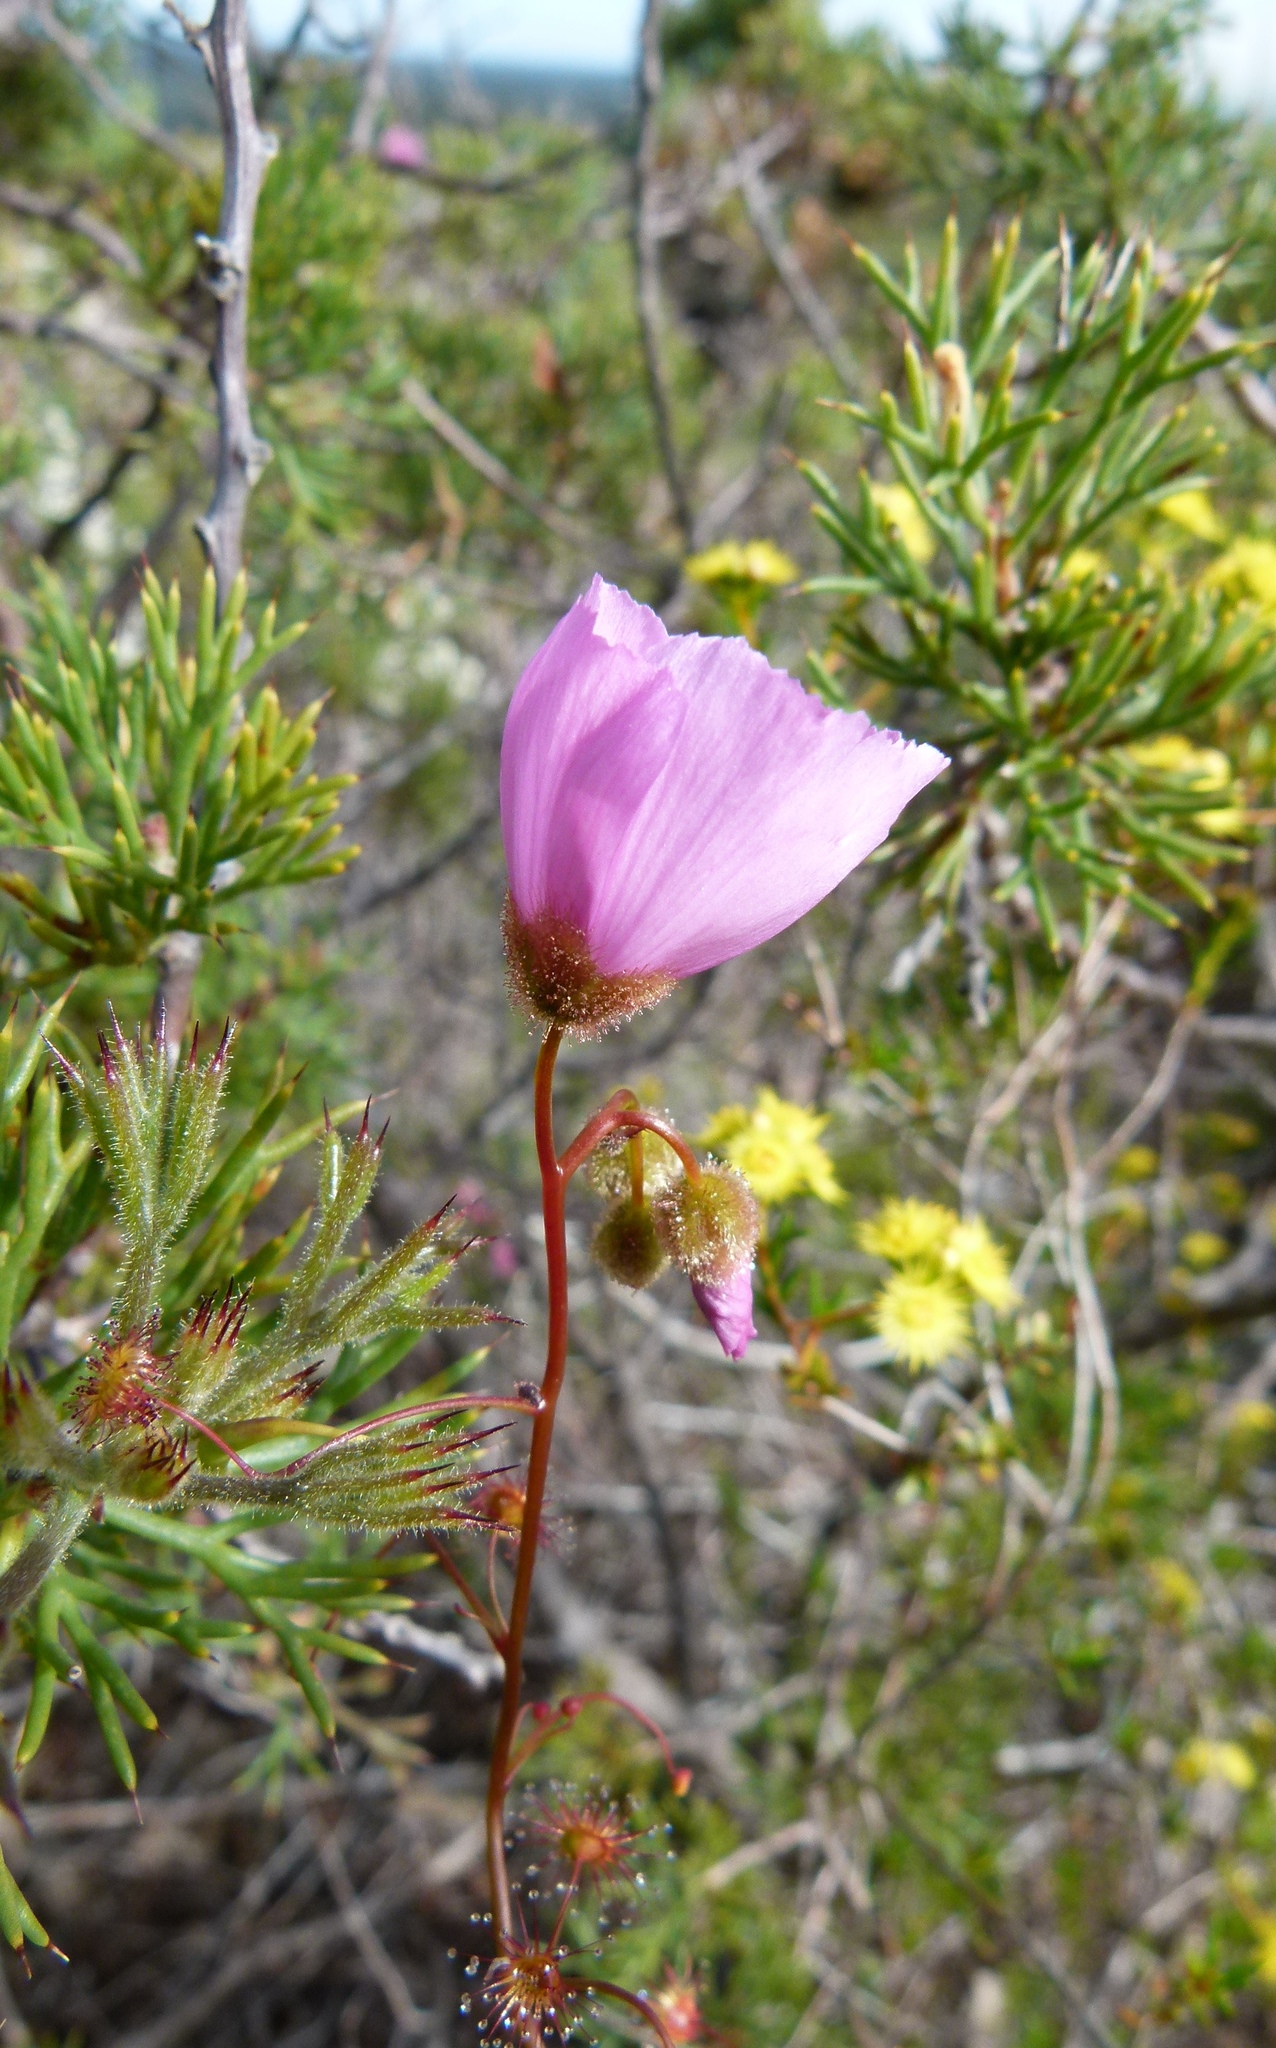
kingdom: Plantae
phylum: Tracheophyta
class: Magnoliopsida
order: Caryophyllales
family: Droseraceae
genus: Drosera
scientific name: Drosera menziesii
